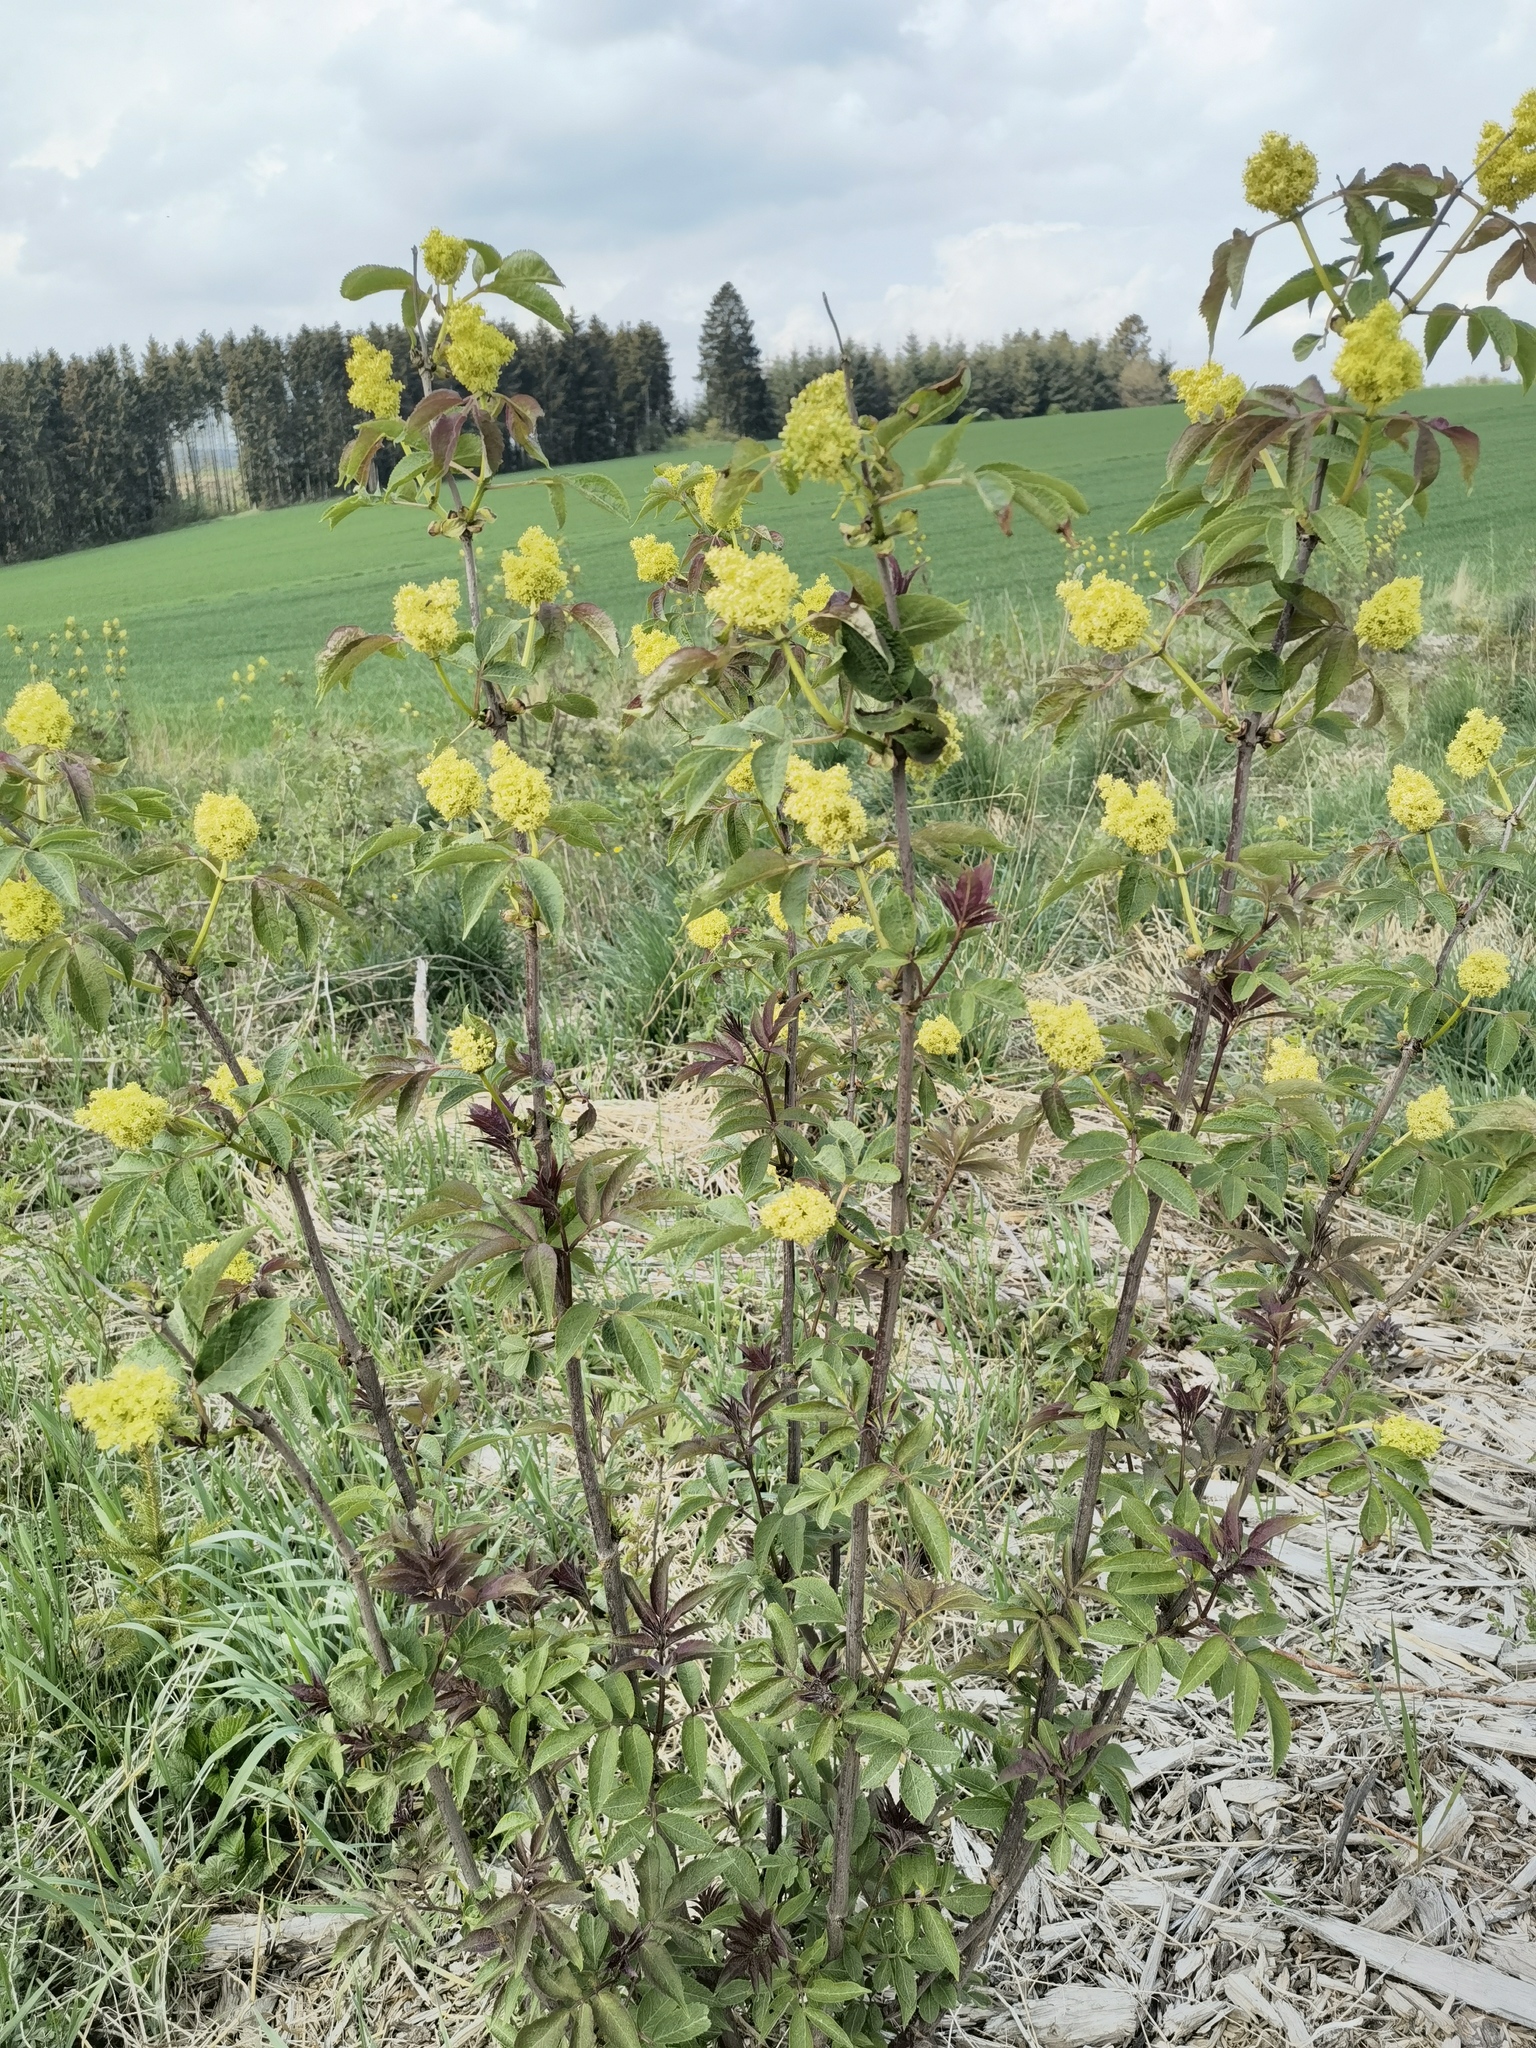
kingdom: Plantae
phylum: Tracheophyta
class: Magnoliopsida
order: Dipsacales
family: Viburnaceae
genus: Sambucus
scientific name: Sambucus racemosa
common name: Red-berried elder
